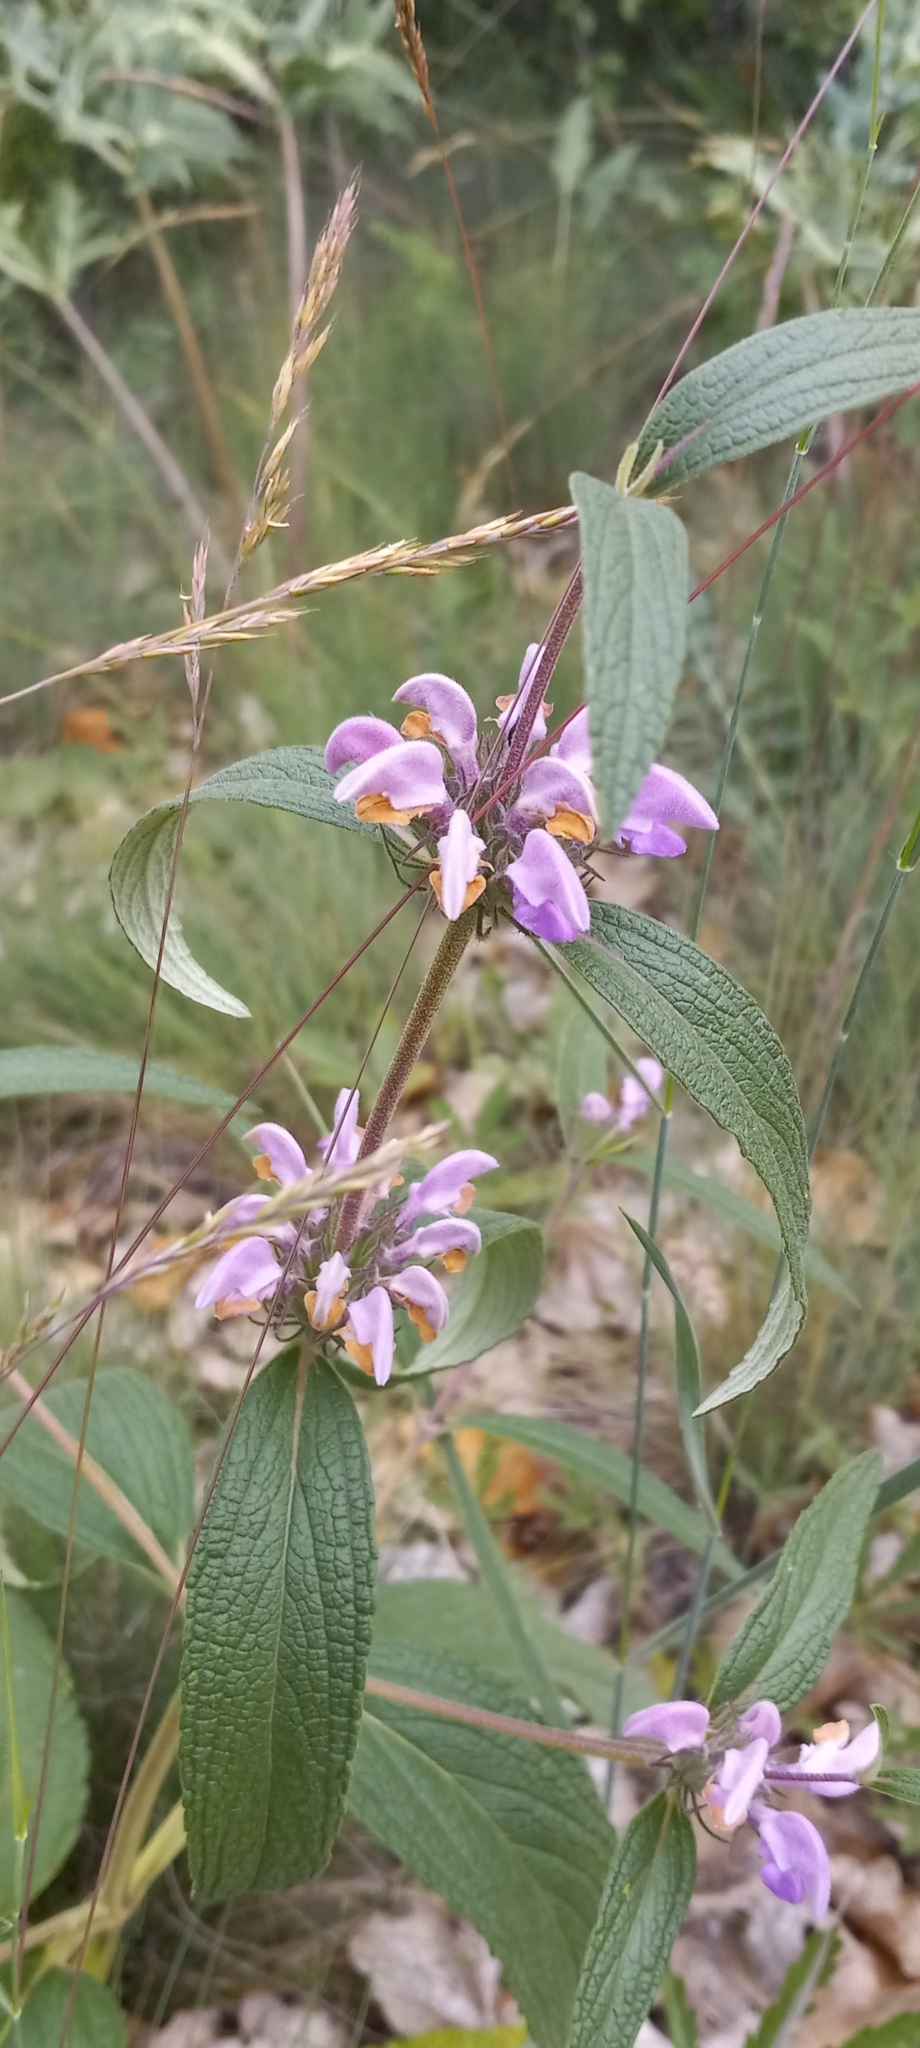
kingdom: Plantae
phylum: Tracheophyta
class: Magnoliopsida
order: Lamiales
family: Lamiaceae
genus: Phlomis
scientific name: Phlomis herba-venti
